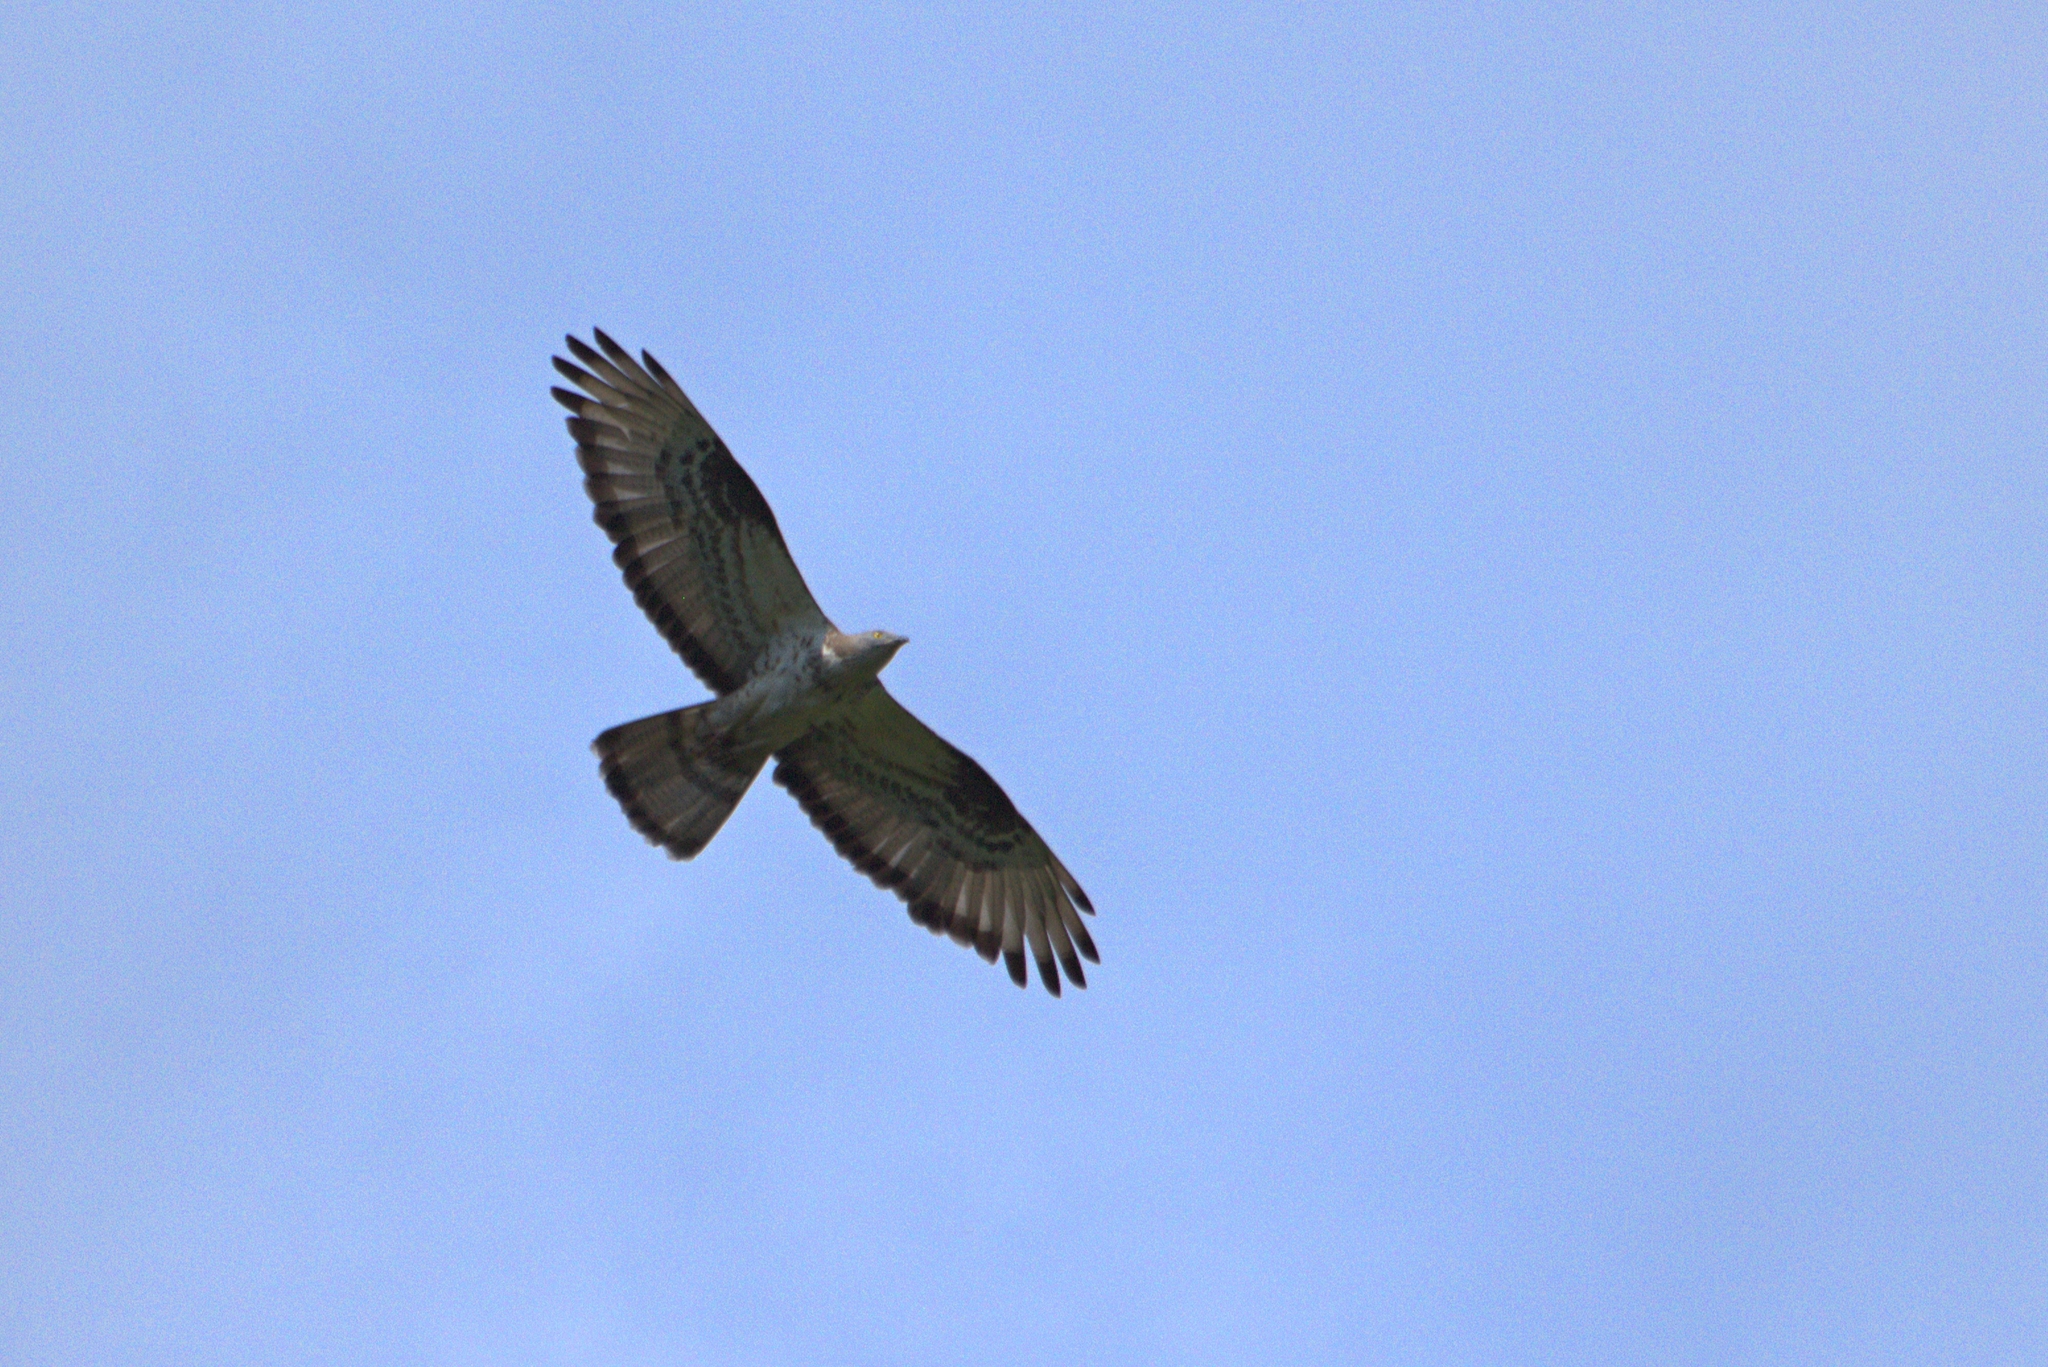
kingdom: Animalia
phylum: Chordata
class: Aves
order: Accipitriformes
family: Accipitridae
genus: Pernis
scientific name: Pernis apivorus
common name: European honey buzzard
